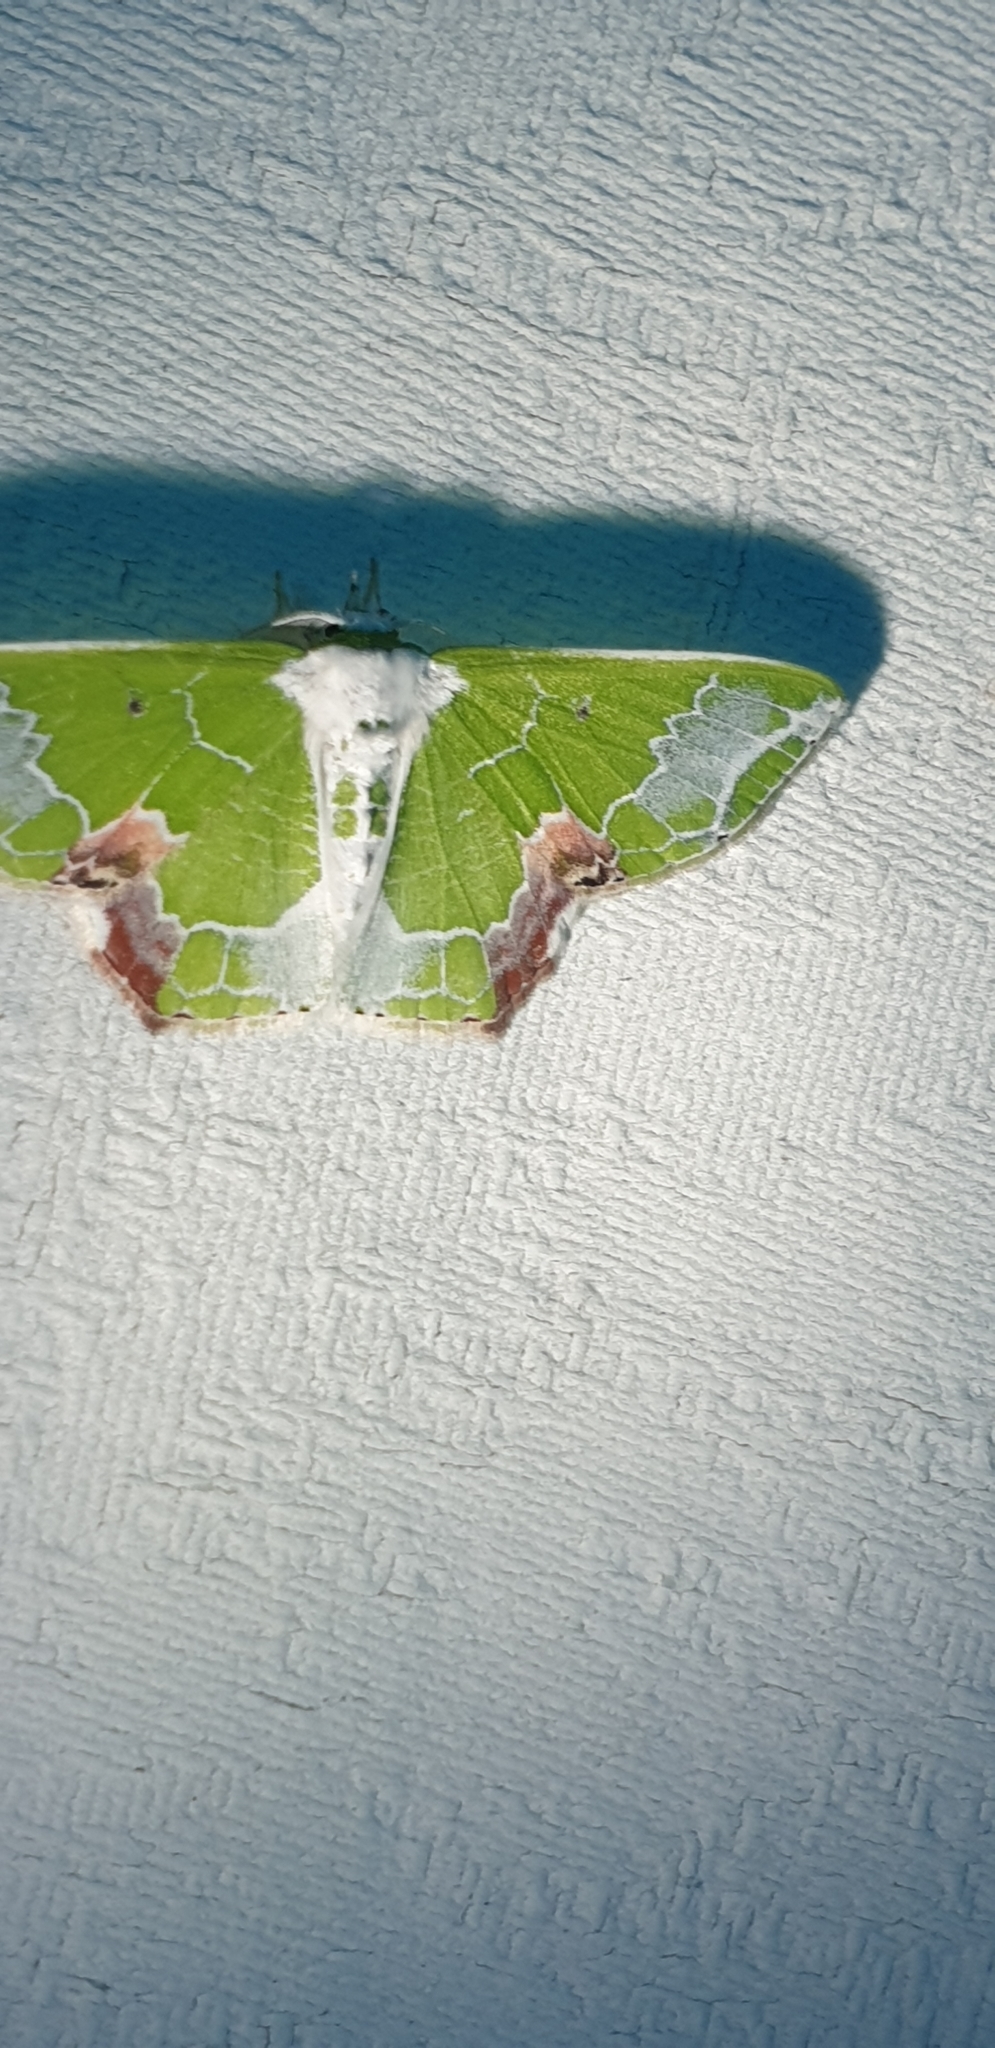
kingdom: Animalia
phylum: Arthropoda
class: Insecta
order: Lepidoptera
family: Geometridae
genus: Protuliocnemis
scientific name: Protuliocnemis partita
